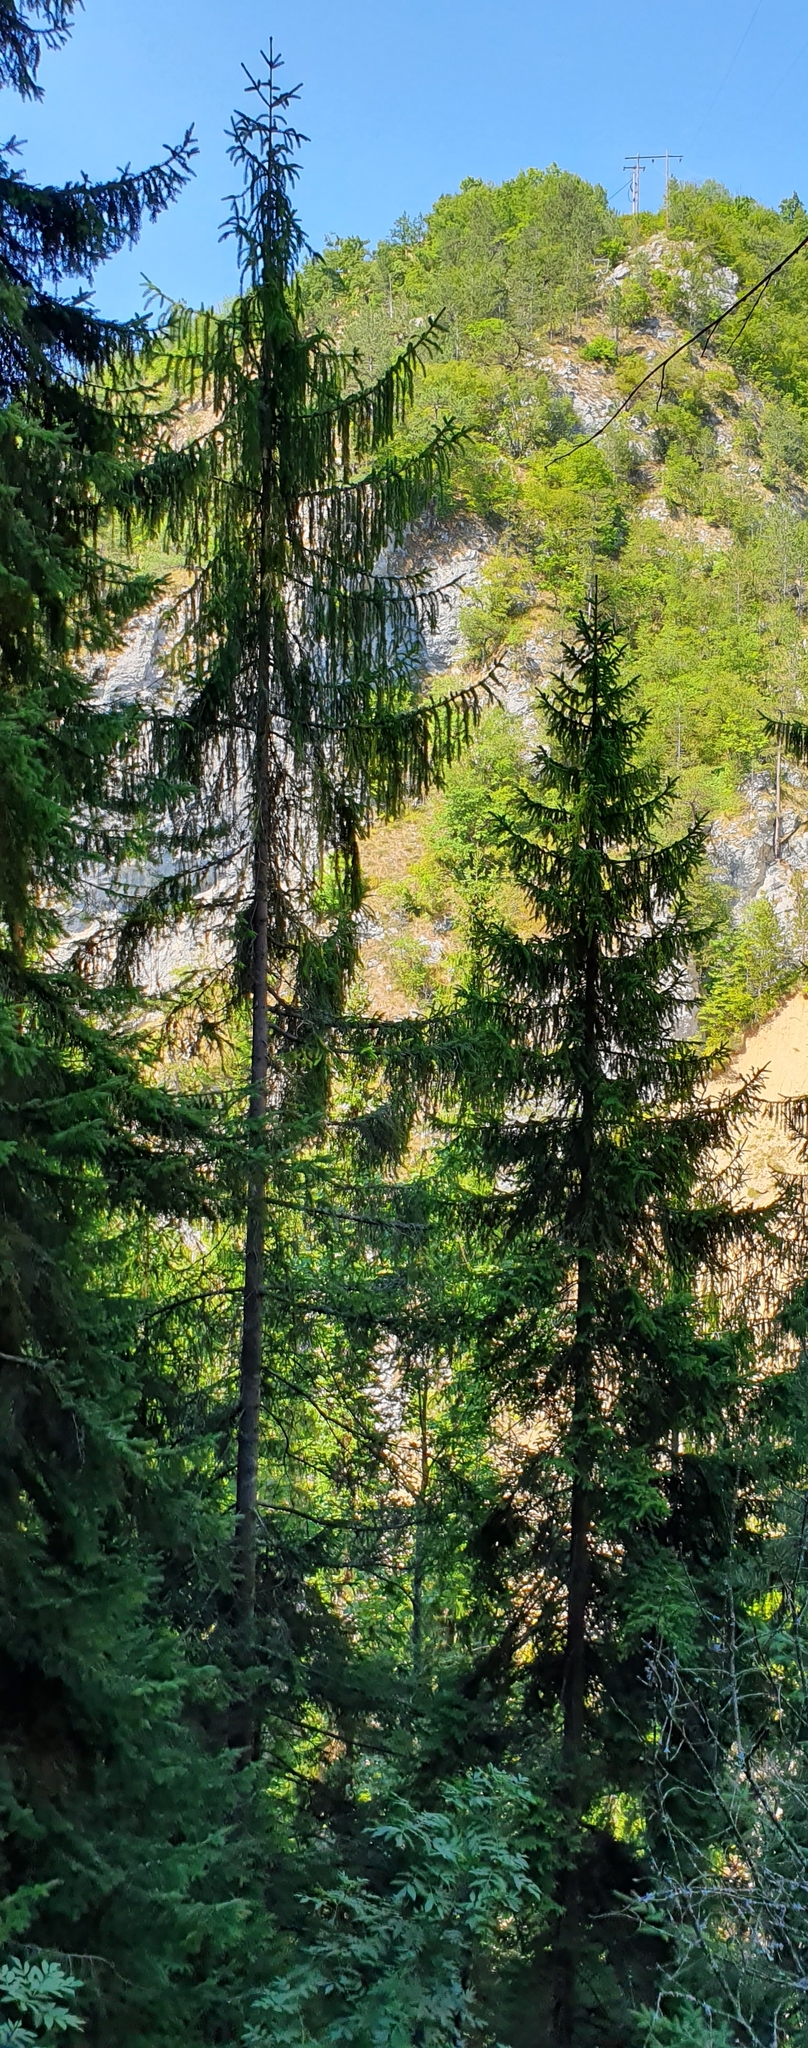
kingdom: Plantae
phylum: Tracheophyta
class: Pinopsida
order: Pinales
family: Pinaceae
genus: Picea
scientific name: Picea abies
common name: Norway spruce
